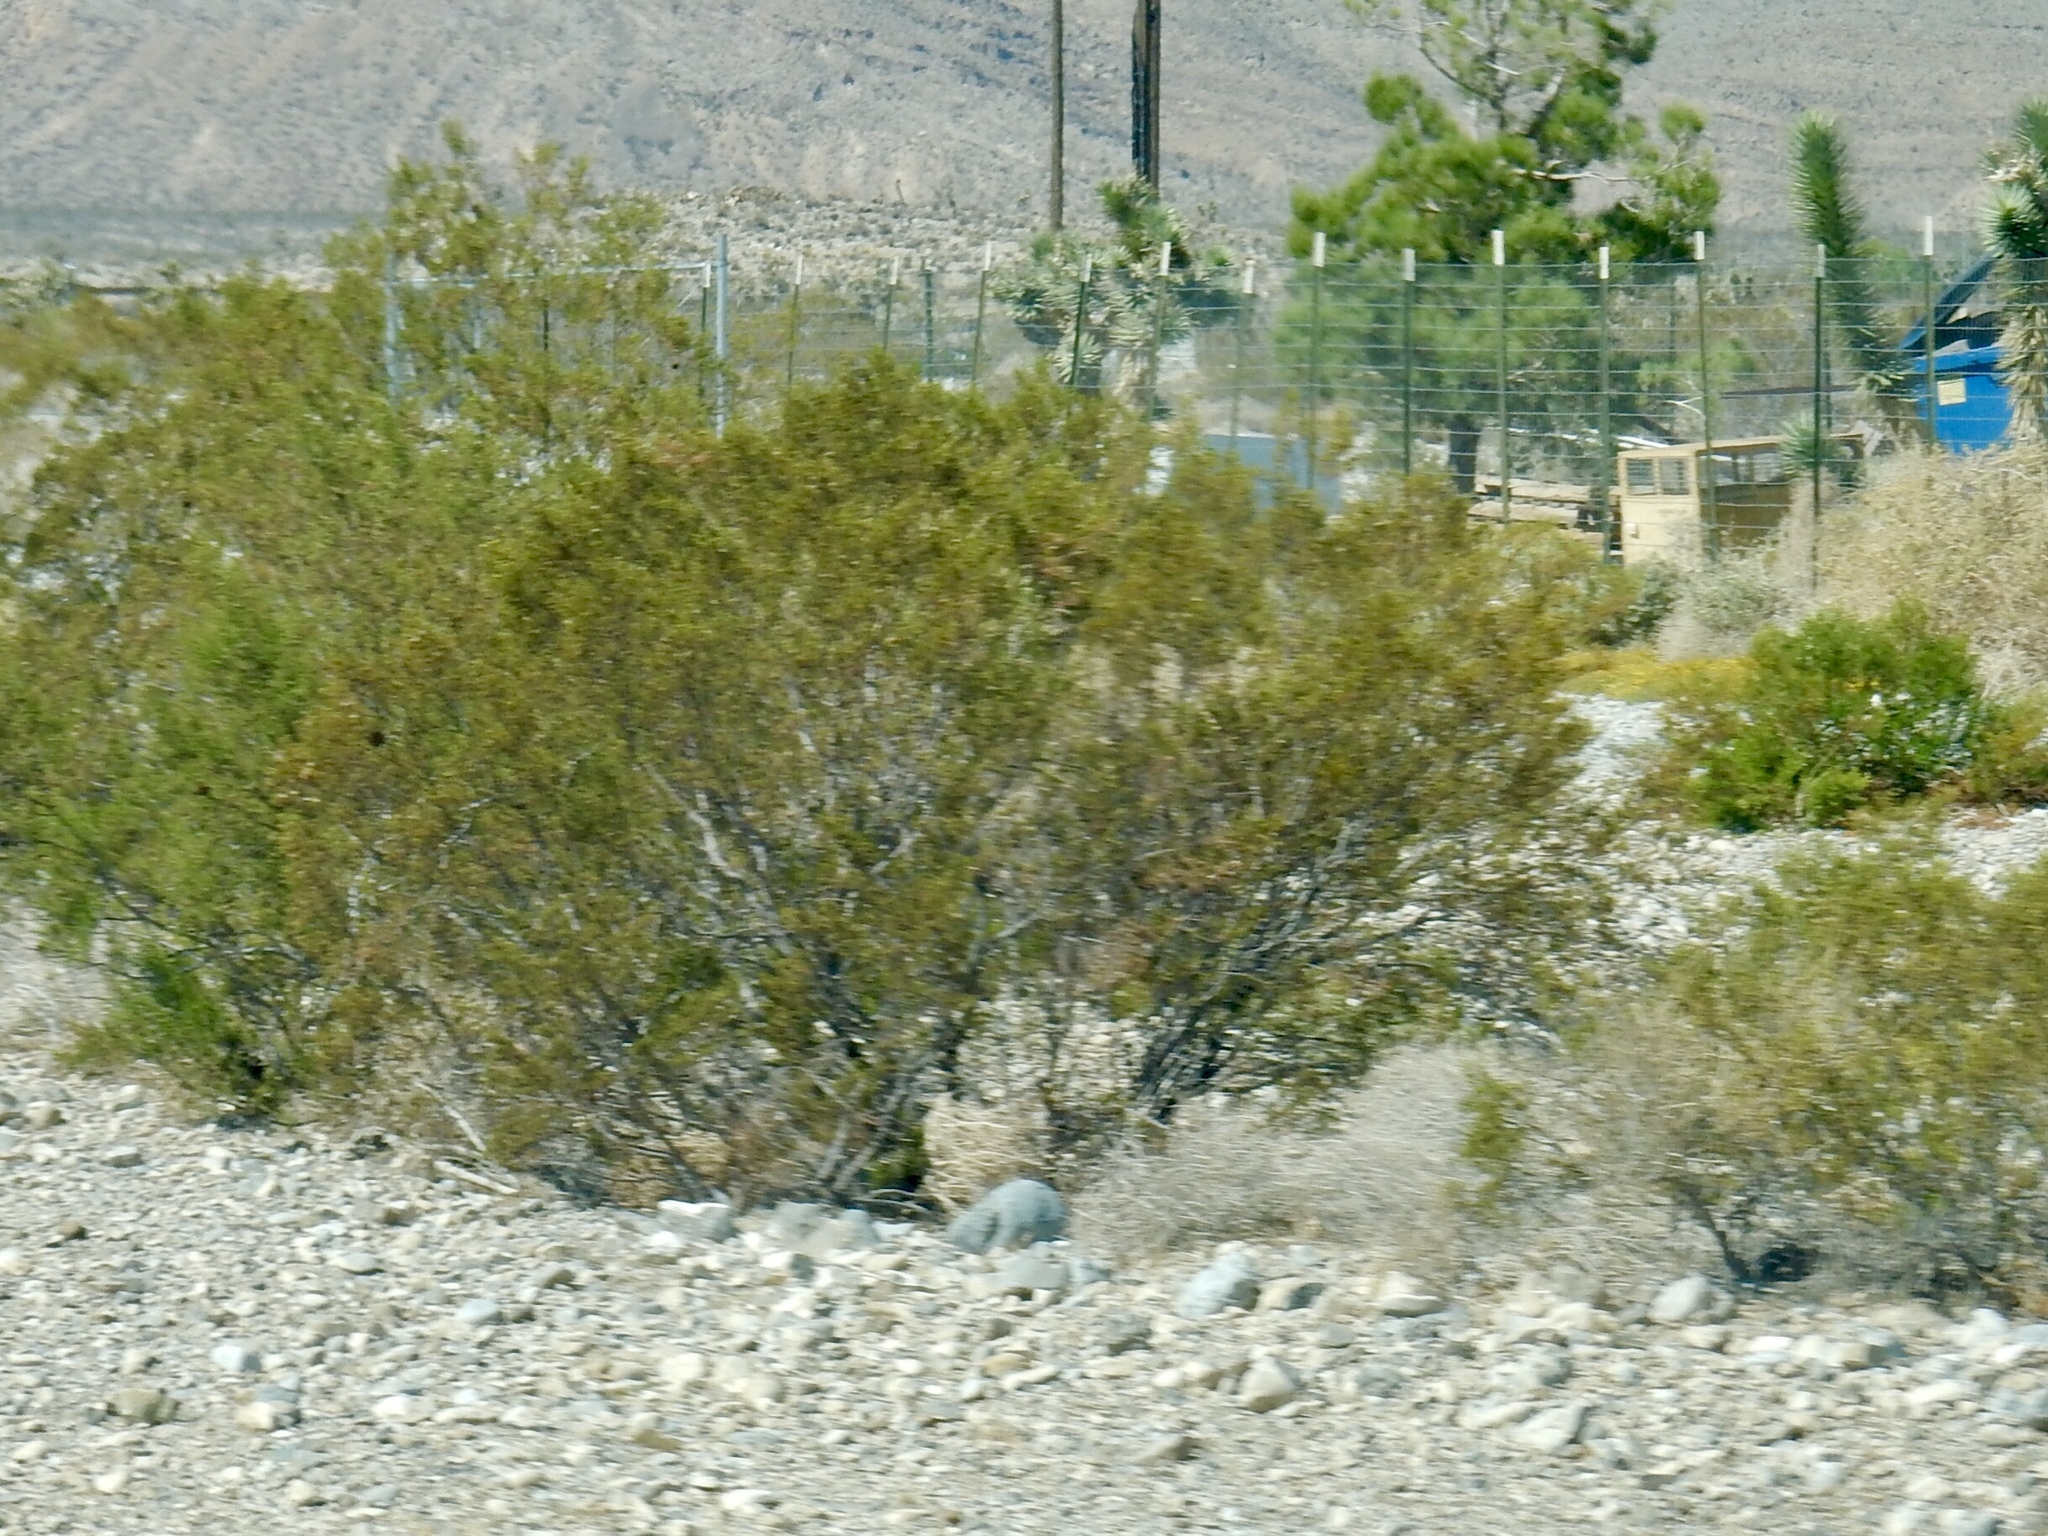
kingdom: Plantae
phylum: Tracheophyta
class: Magnoliopsida
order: Zygophyllales
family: Zygophyllaceae
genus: Larrea
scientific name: Larrea tridentata
